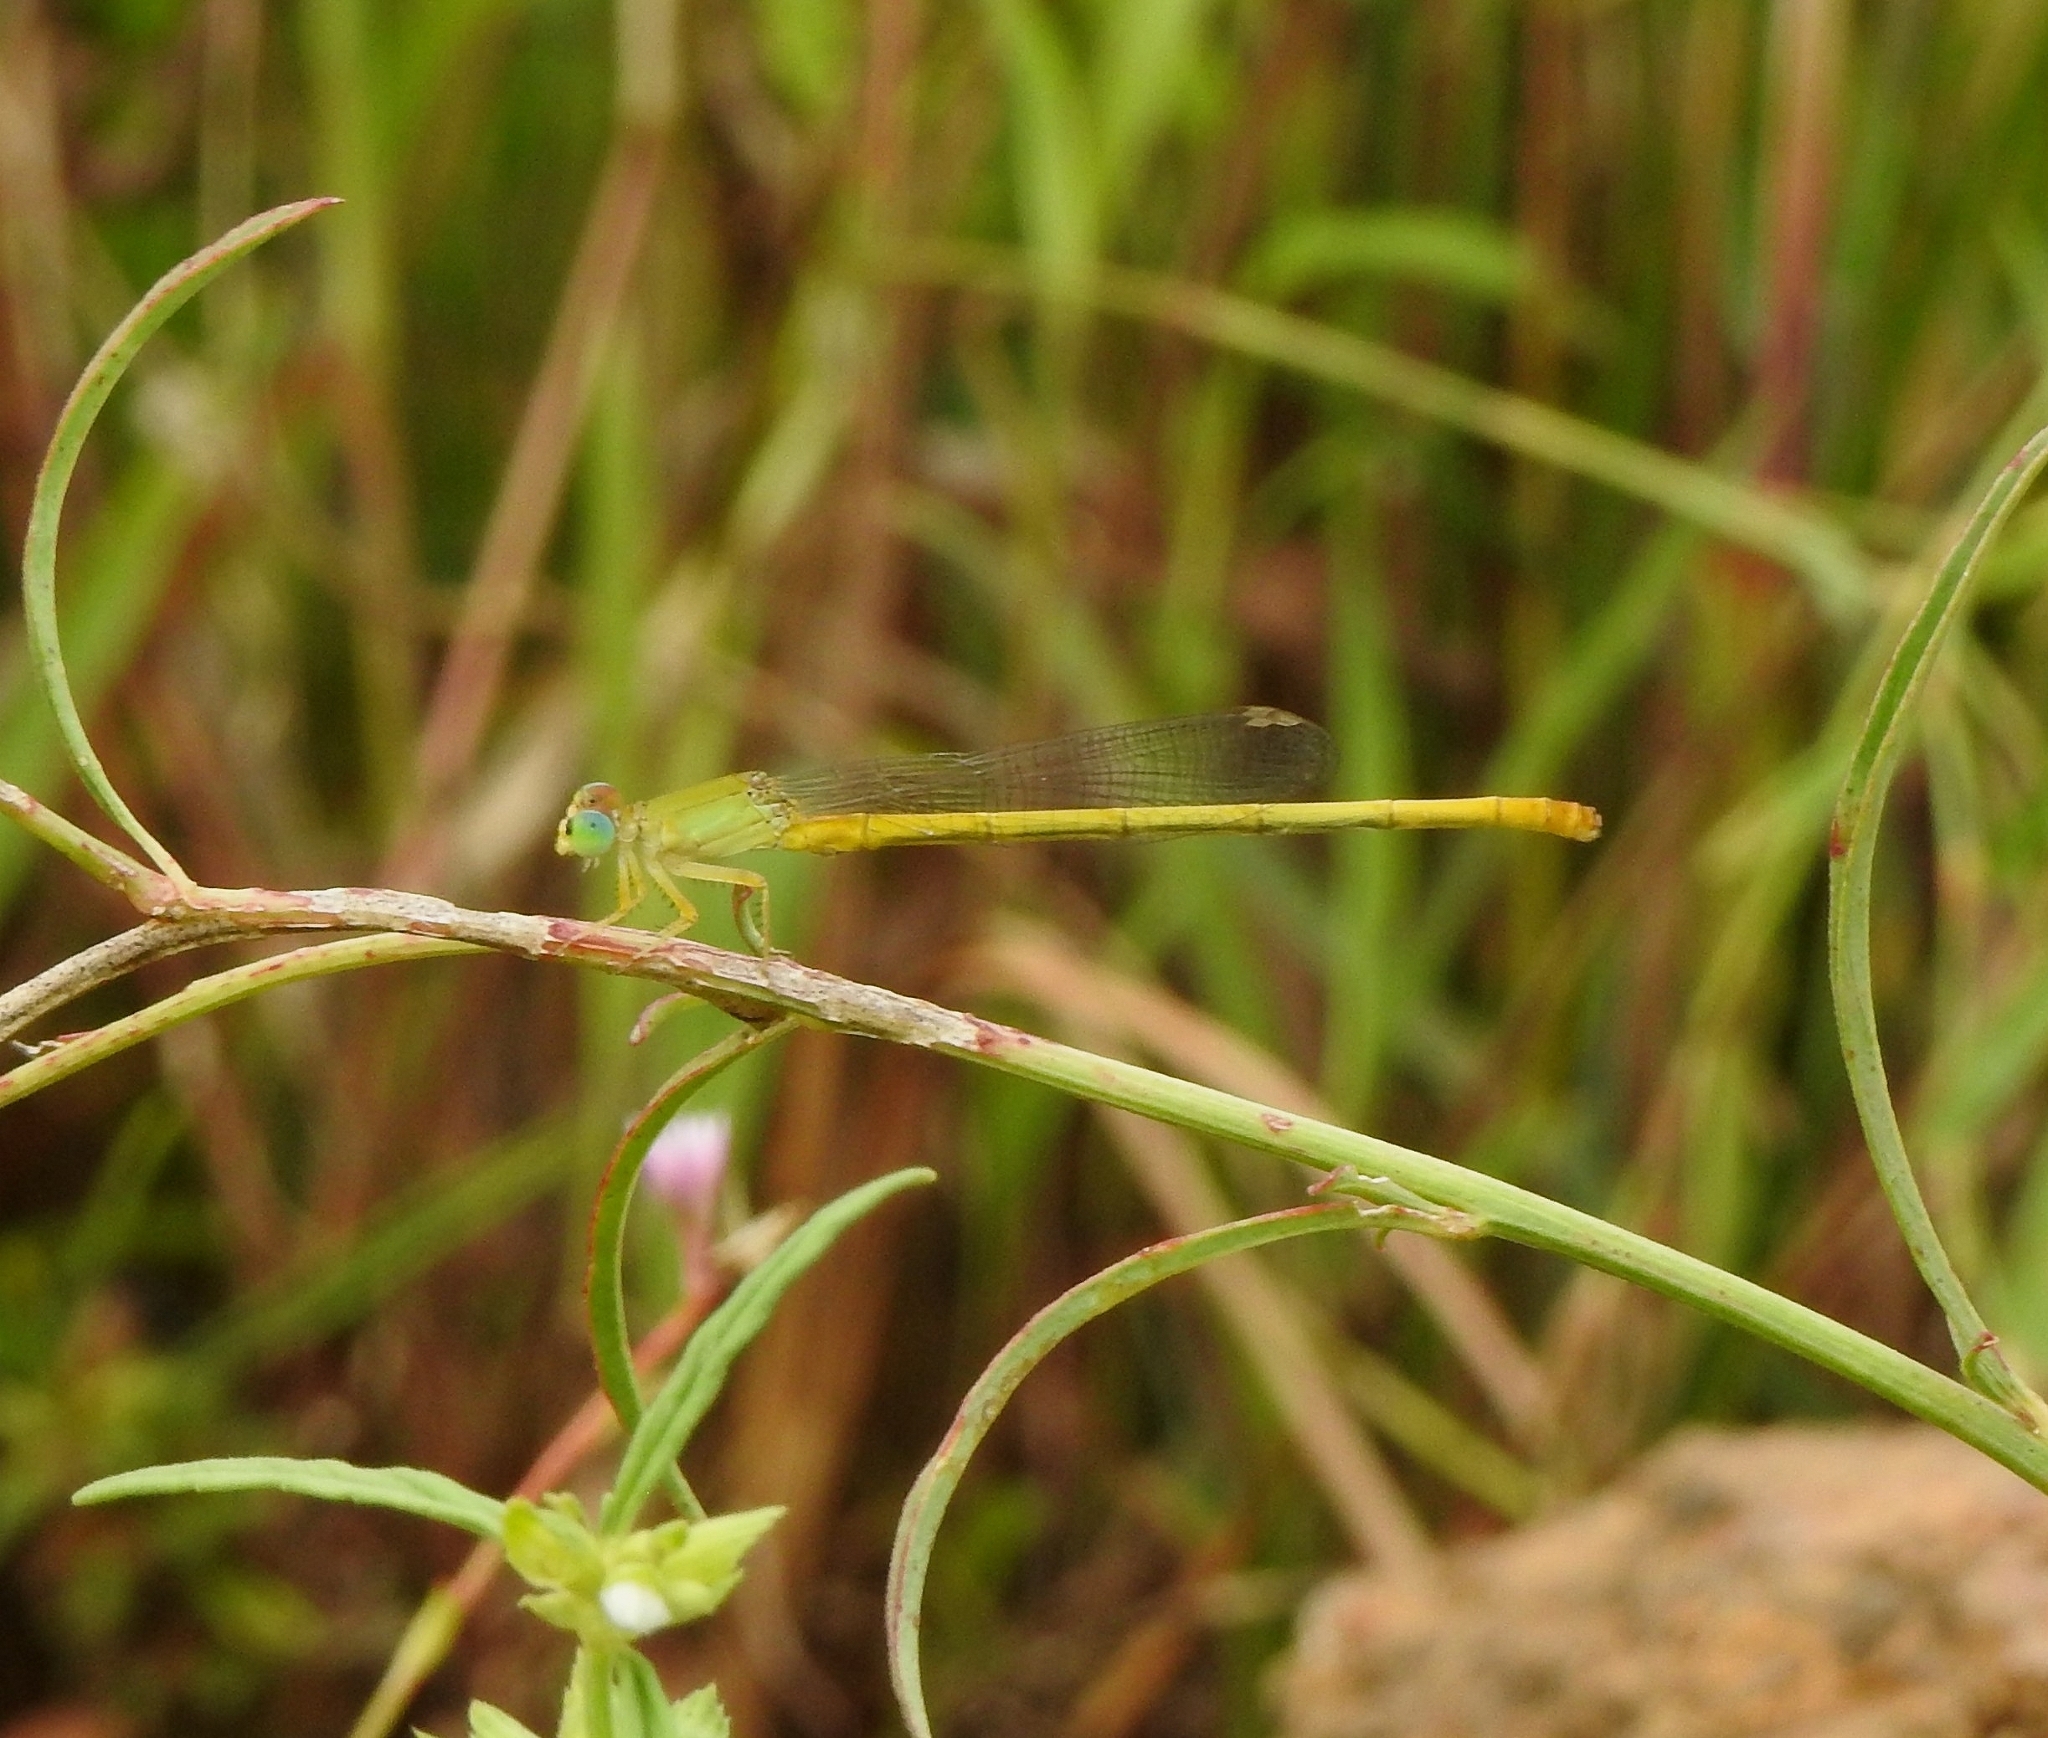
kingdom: Animalia
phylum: Arthropoda
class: Insecta
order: Odonata
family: Coenagrionidae
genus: Ceriagrion
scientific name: Ceriagrion coromandelianum
